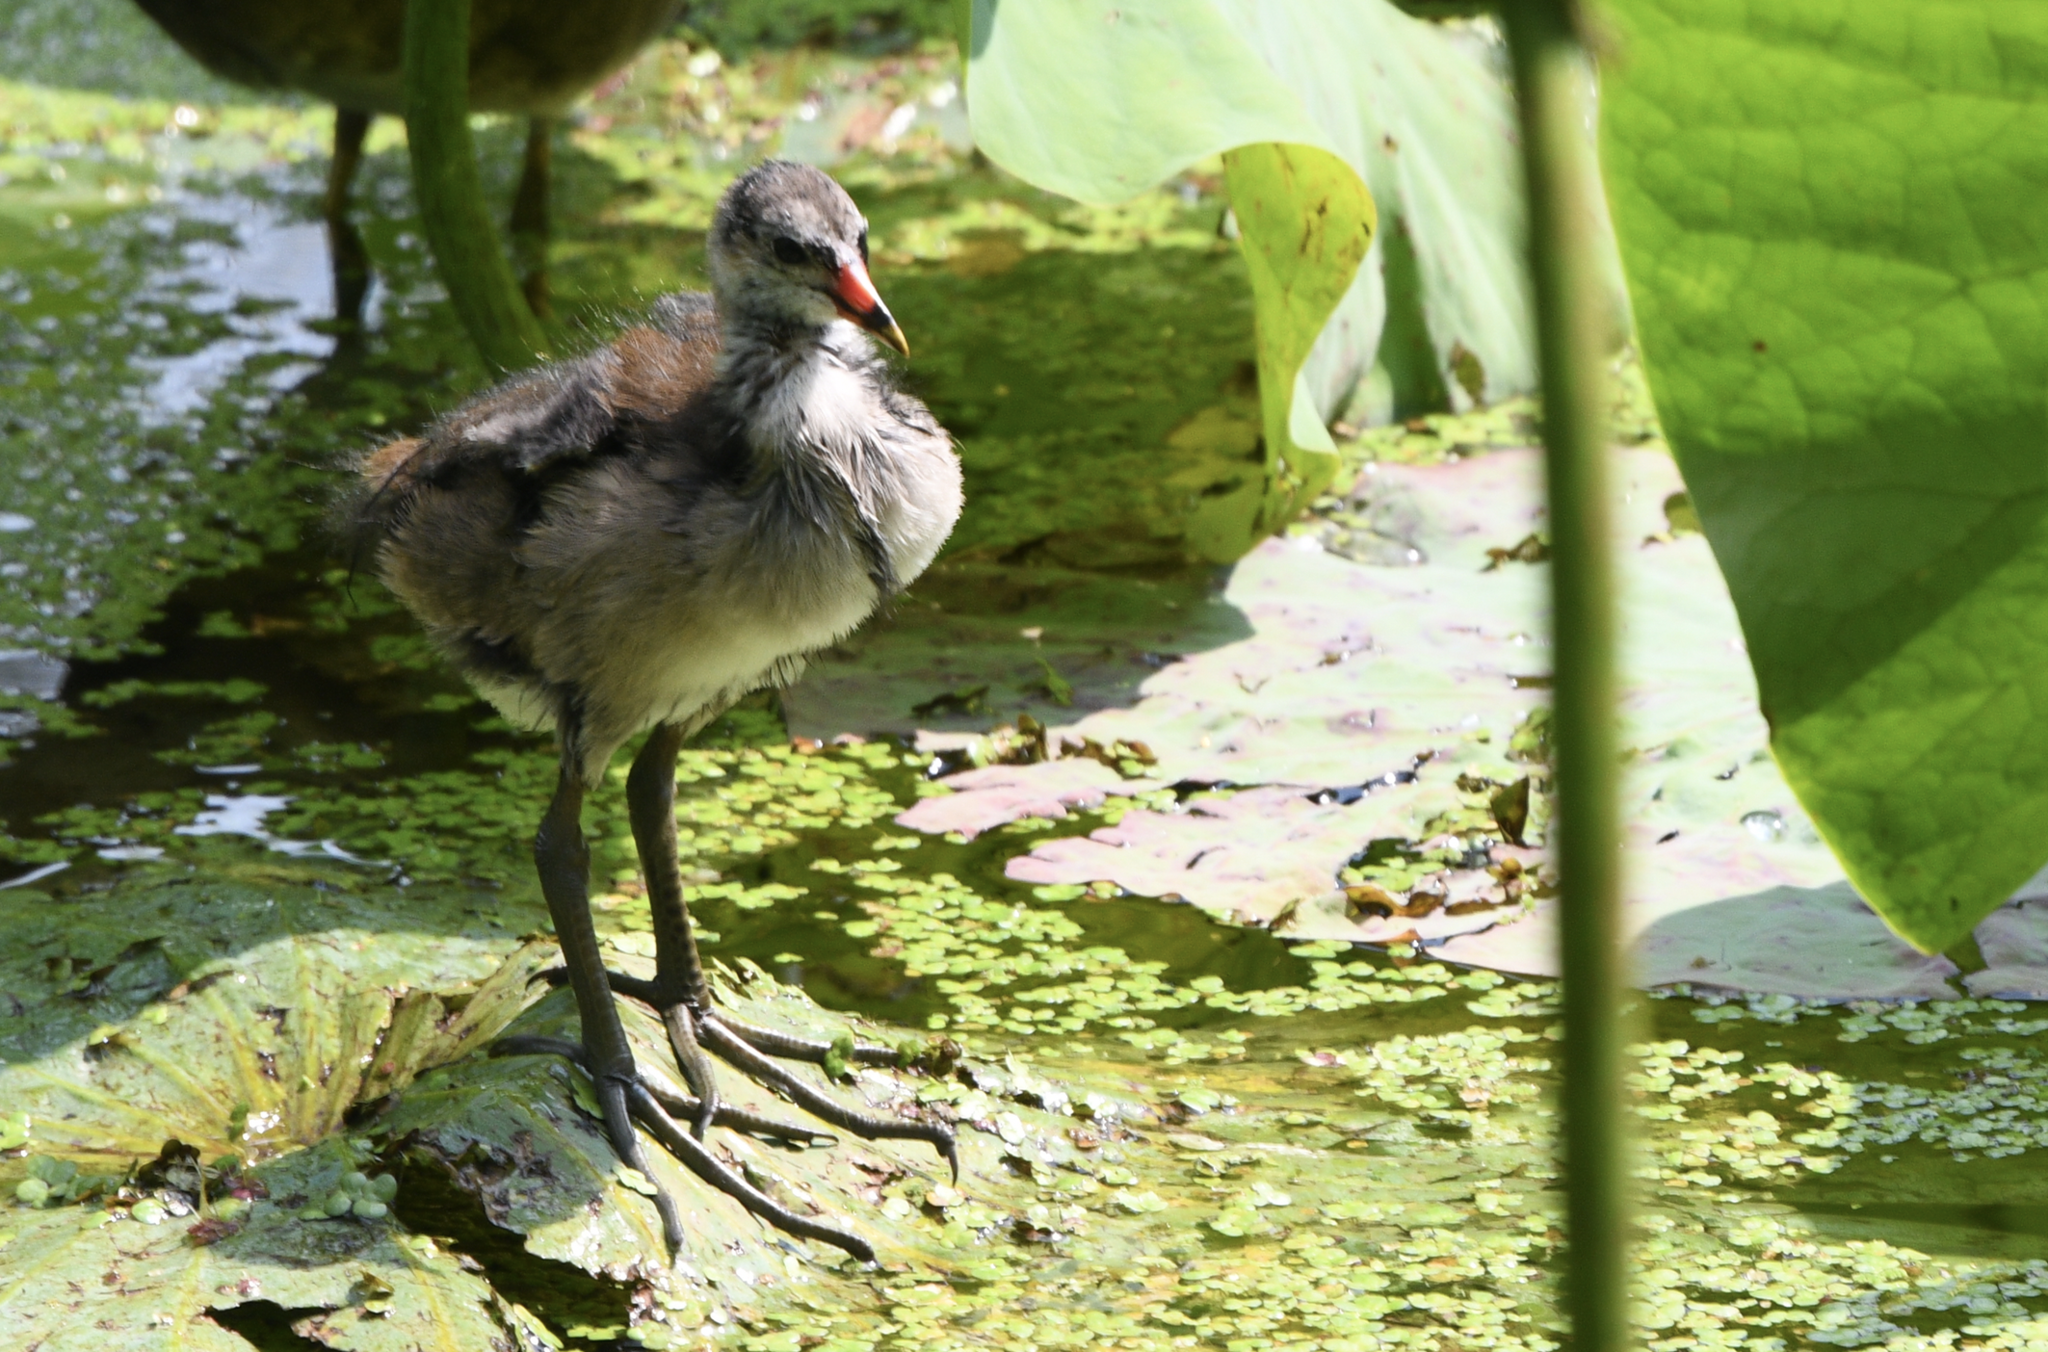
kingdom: Animalia
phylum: Chordata
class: Aves
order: Gruiformes
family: Rallidae
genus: Gallinula
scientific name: Gallinula chloropus
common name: Common moorhen
